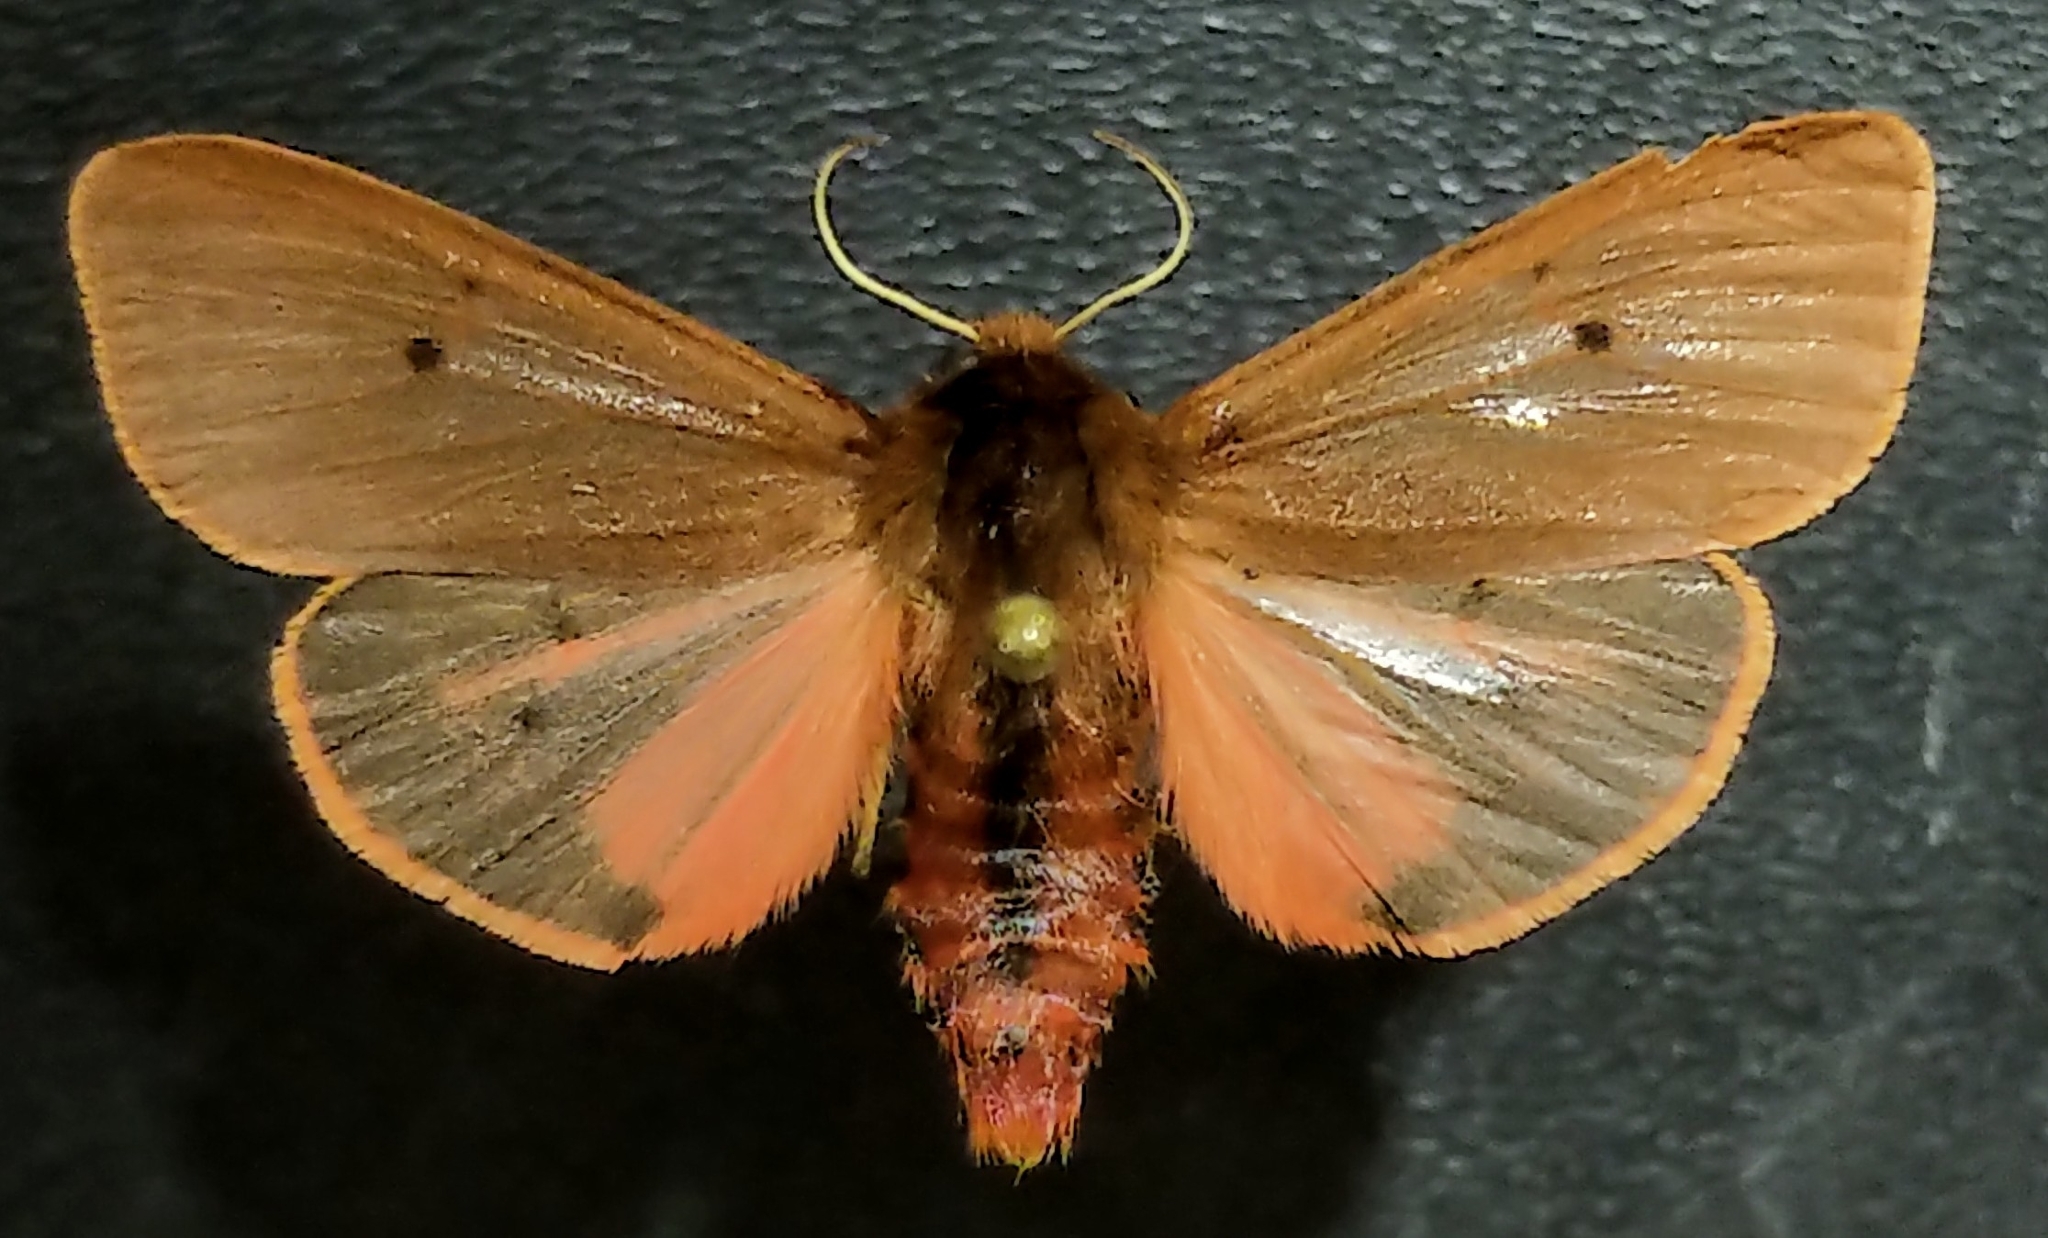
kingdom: Animalia
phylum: Arthropoda
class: Insecta
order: Lepidoptera
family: Erebidae
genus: Phragmatobia
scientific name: Phragmatobia fuliginosa
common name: Ruby tiger
